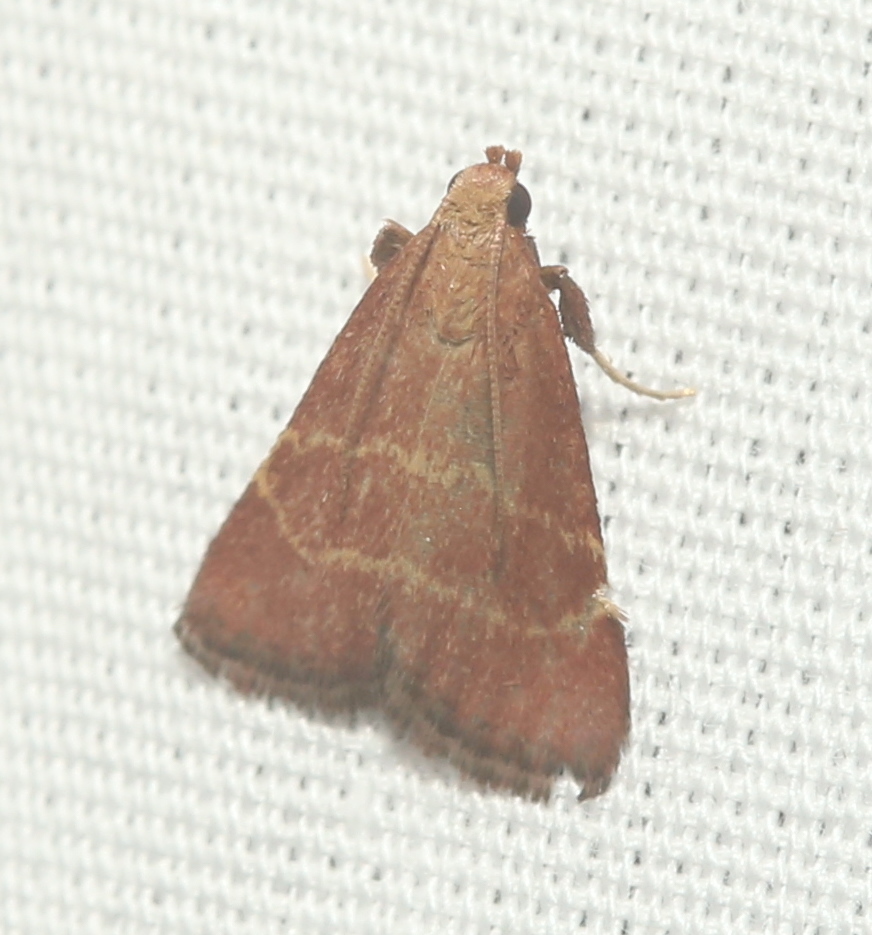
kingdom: Animalia
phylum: Arthropoda
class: Insecta
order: Lepidoptera
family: Pyralidae
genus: Arta
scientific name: Arta statalis
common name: Posturing arta moth
